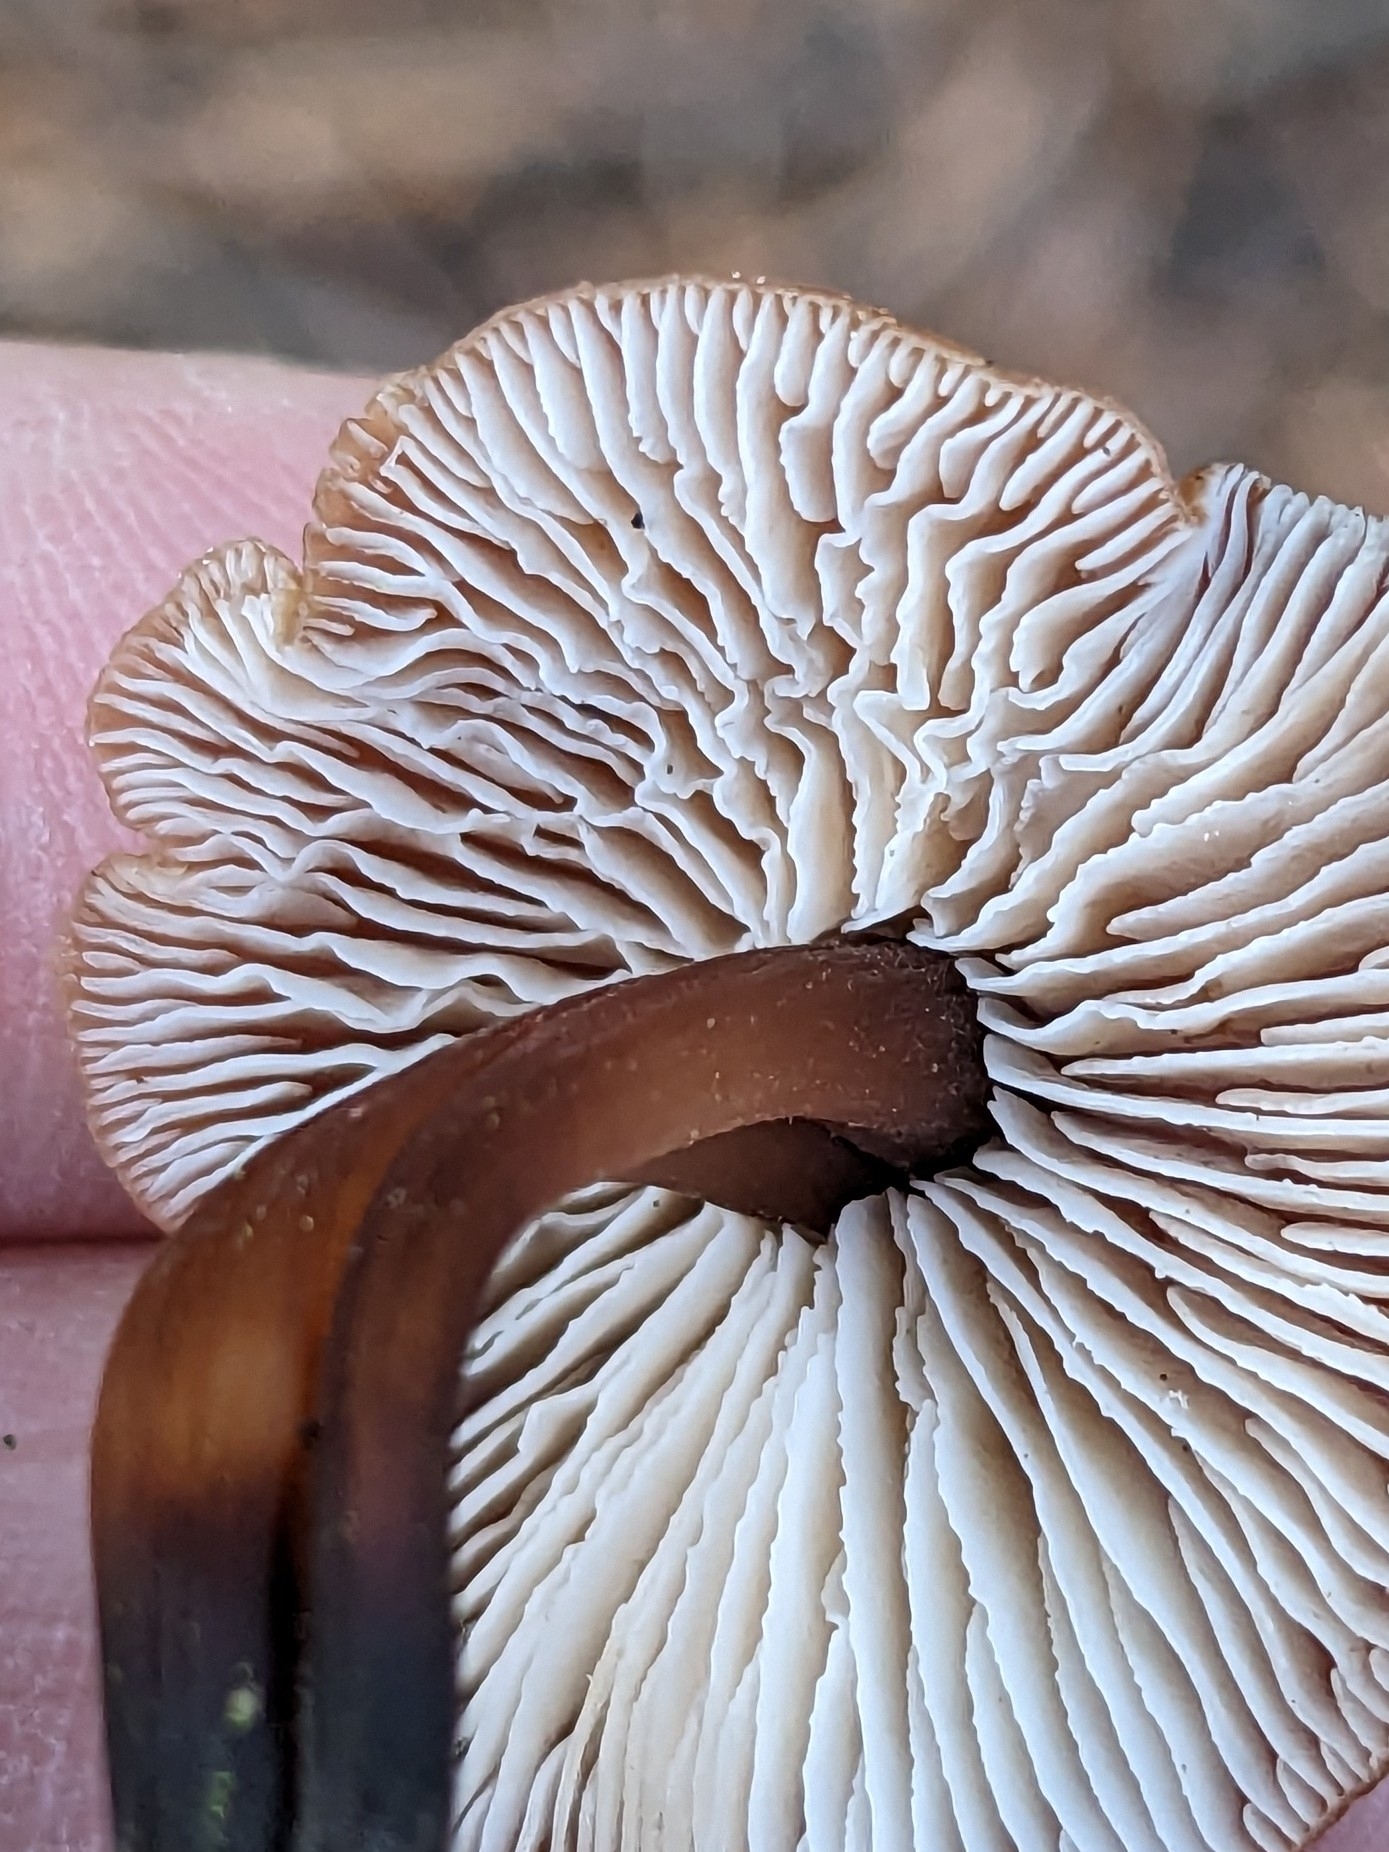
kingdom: Fungi
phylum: Basidiomycota
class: Agaricomycetes
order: Agaricales
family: Omphalotaceae
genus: Gymnopus
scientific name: Gymnopus brassicolens
